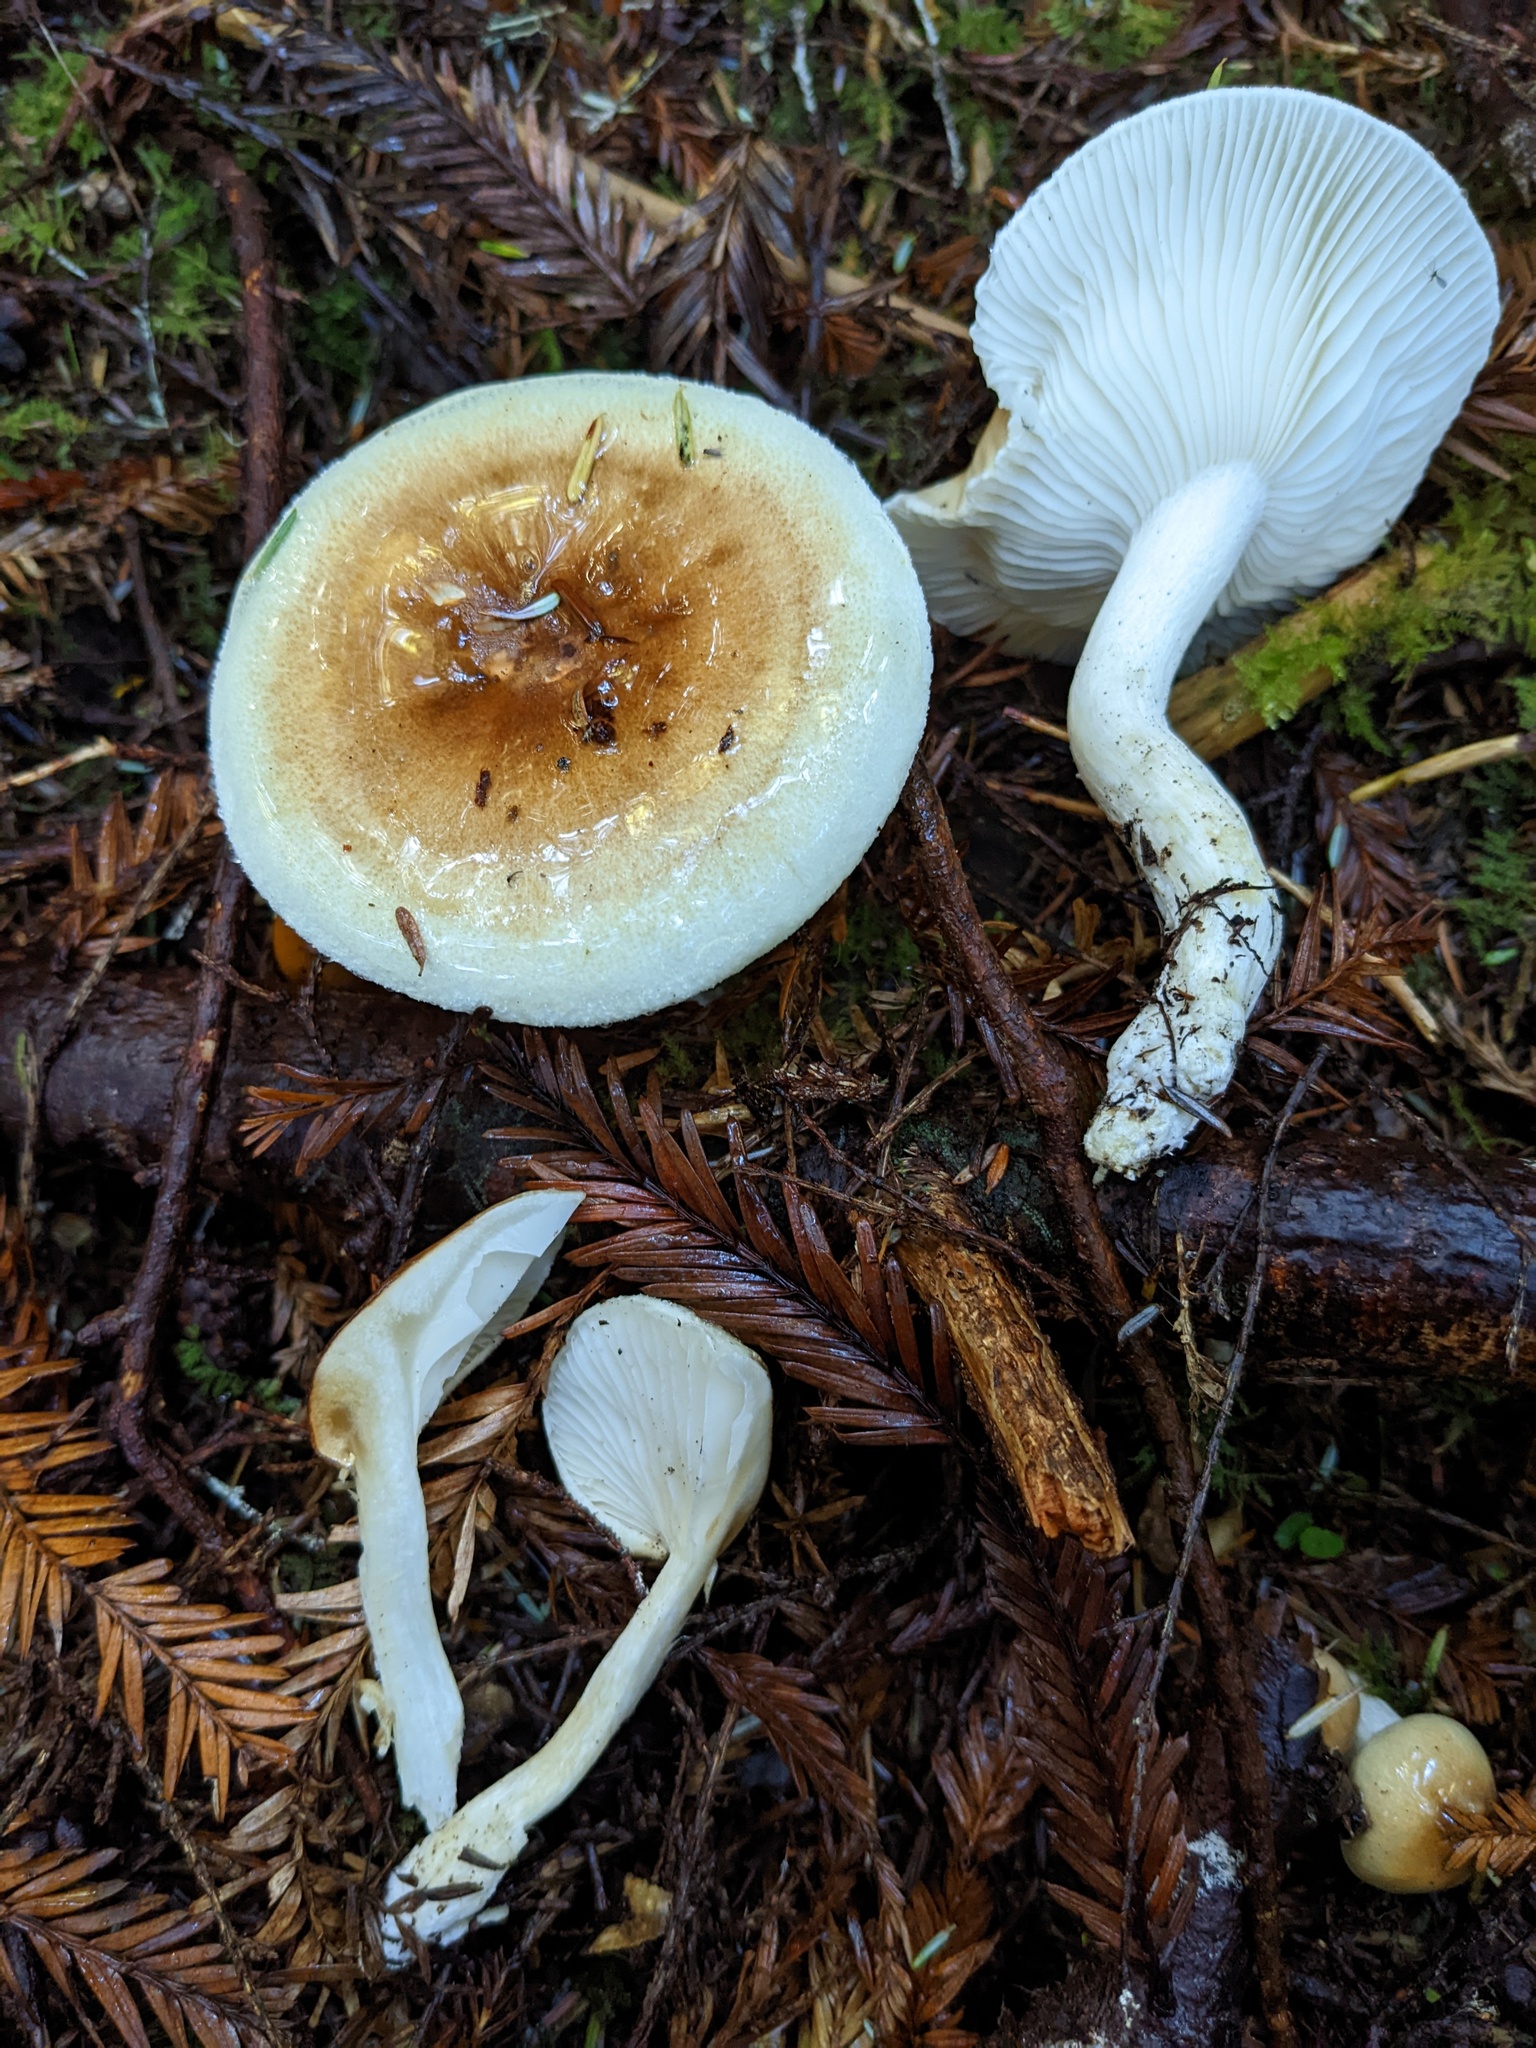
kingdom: Fungi
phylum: Basidiomycota
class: Agaricomycetes
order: Agaricales
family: Hygrophoraceae
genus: Hygrophorus
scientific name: Hygrophorus bakerensis
